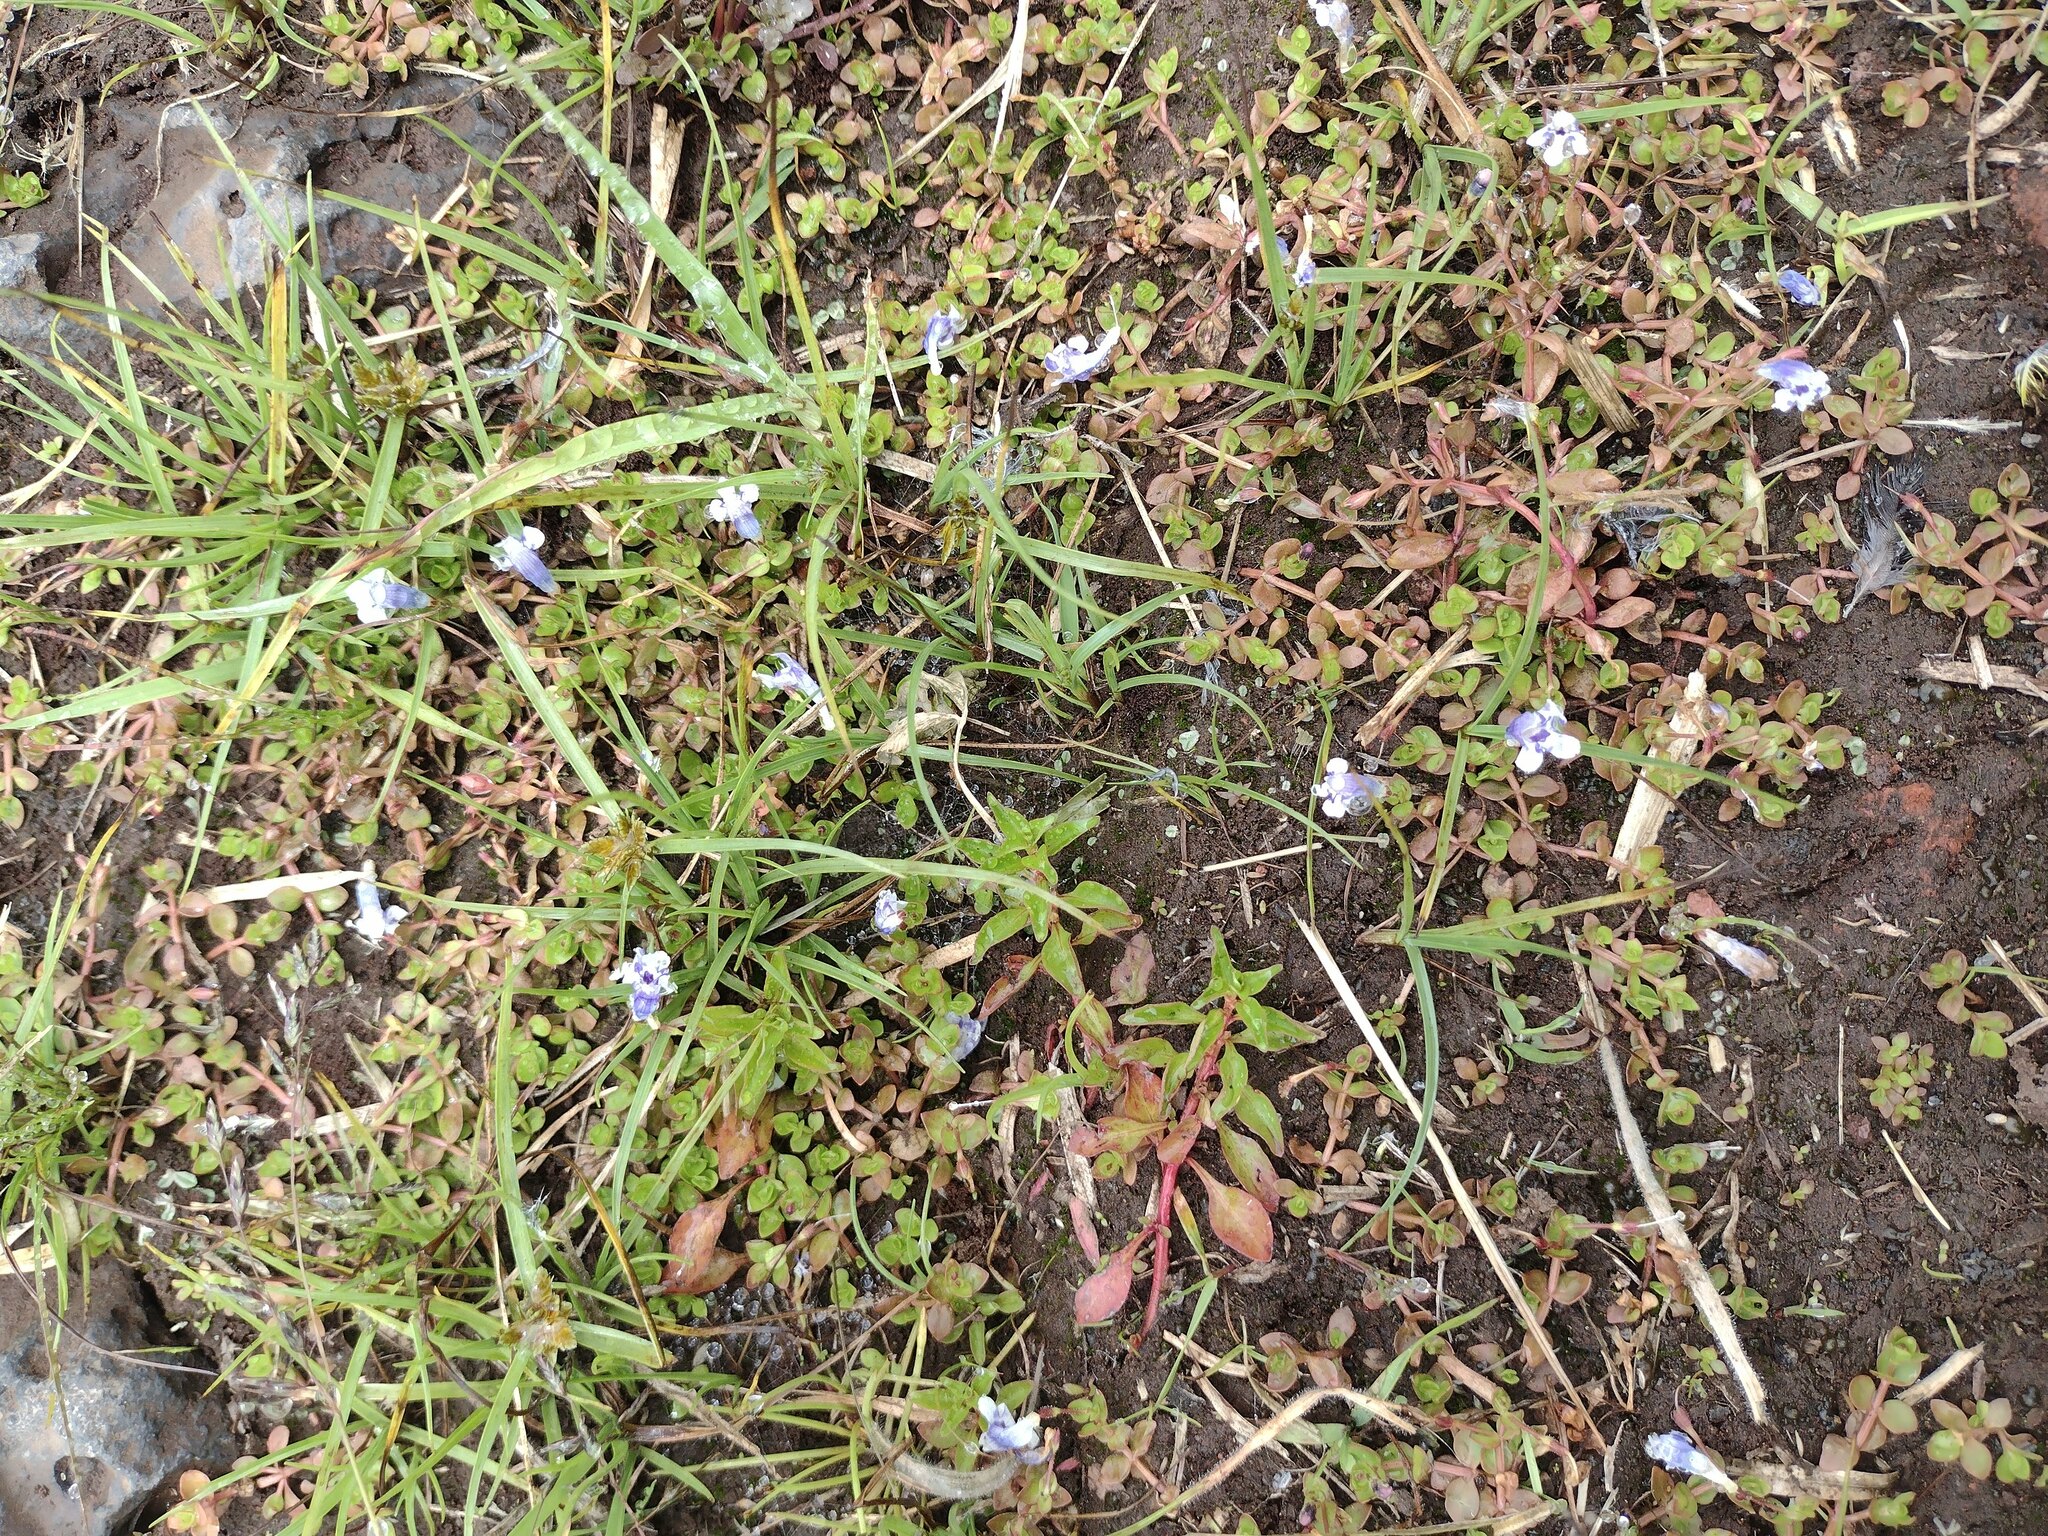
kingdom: Plantae
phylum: Tracheophyta
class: Magnoliopsida
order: Lamiales
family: Linderniaceae
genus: Lindernia
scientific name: Lindernia rotundifolia
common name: Baby’s tears
